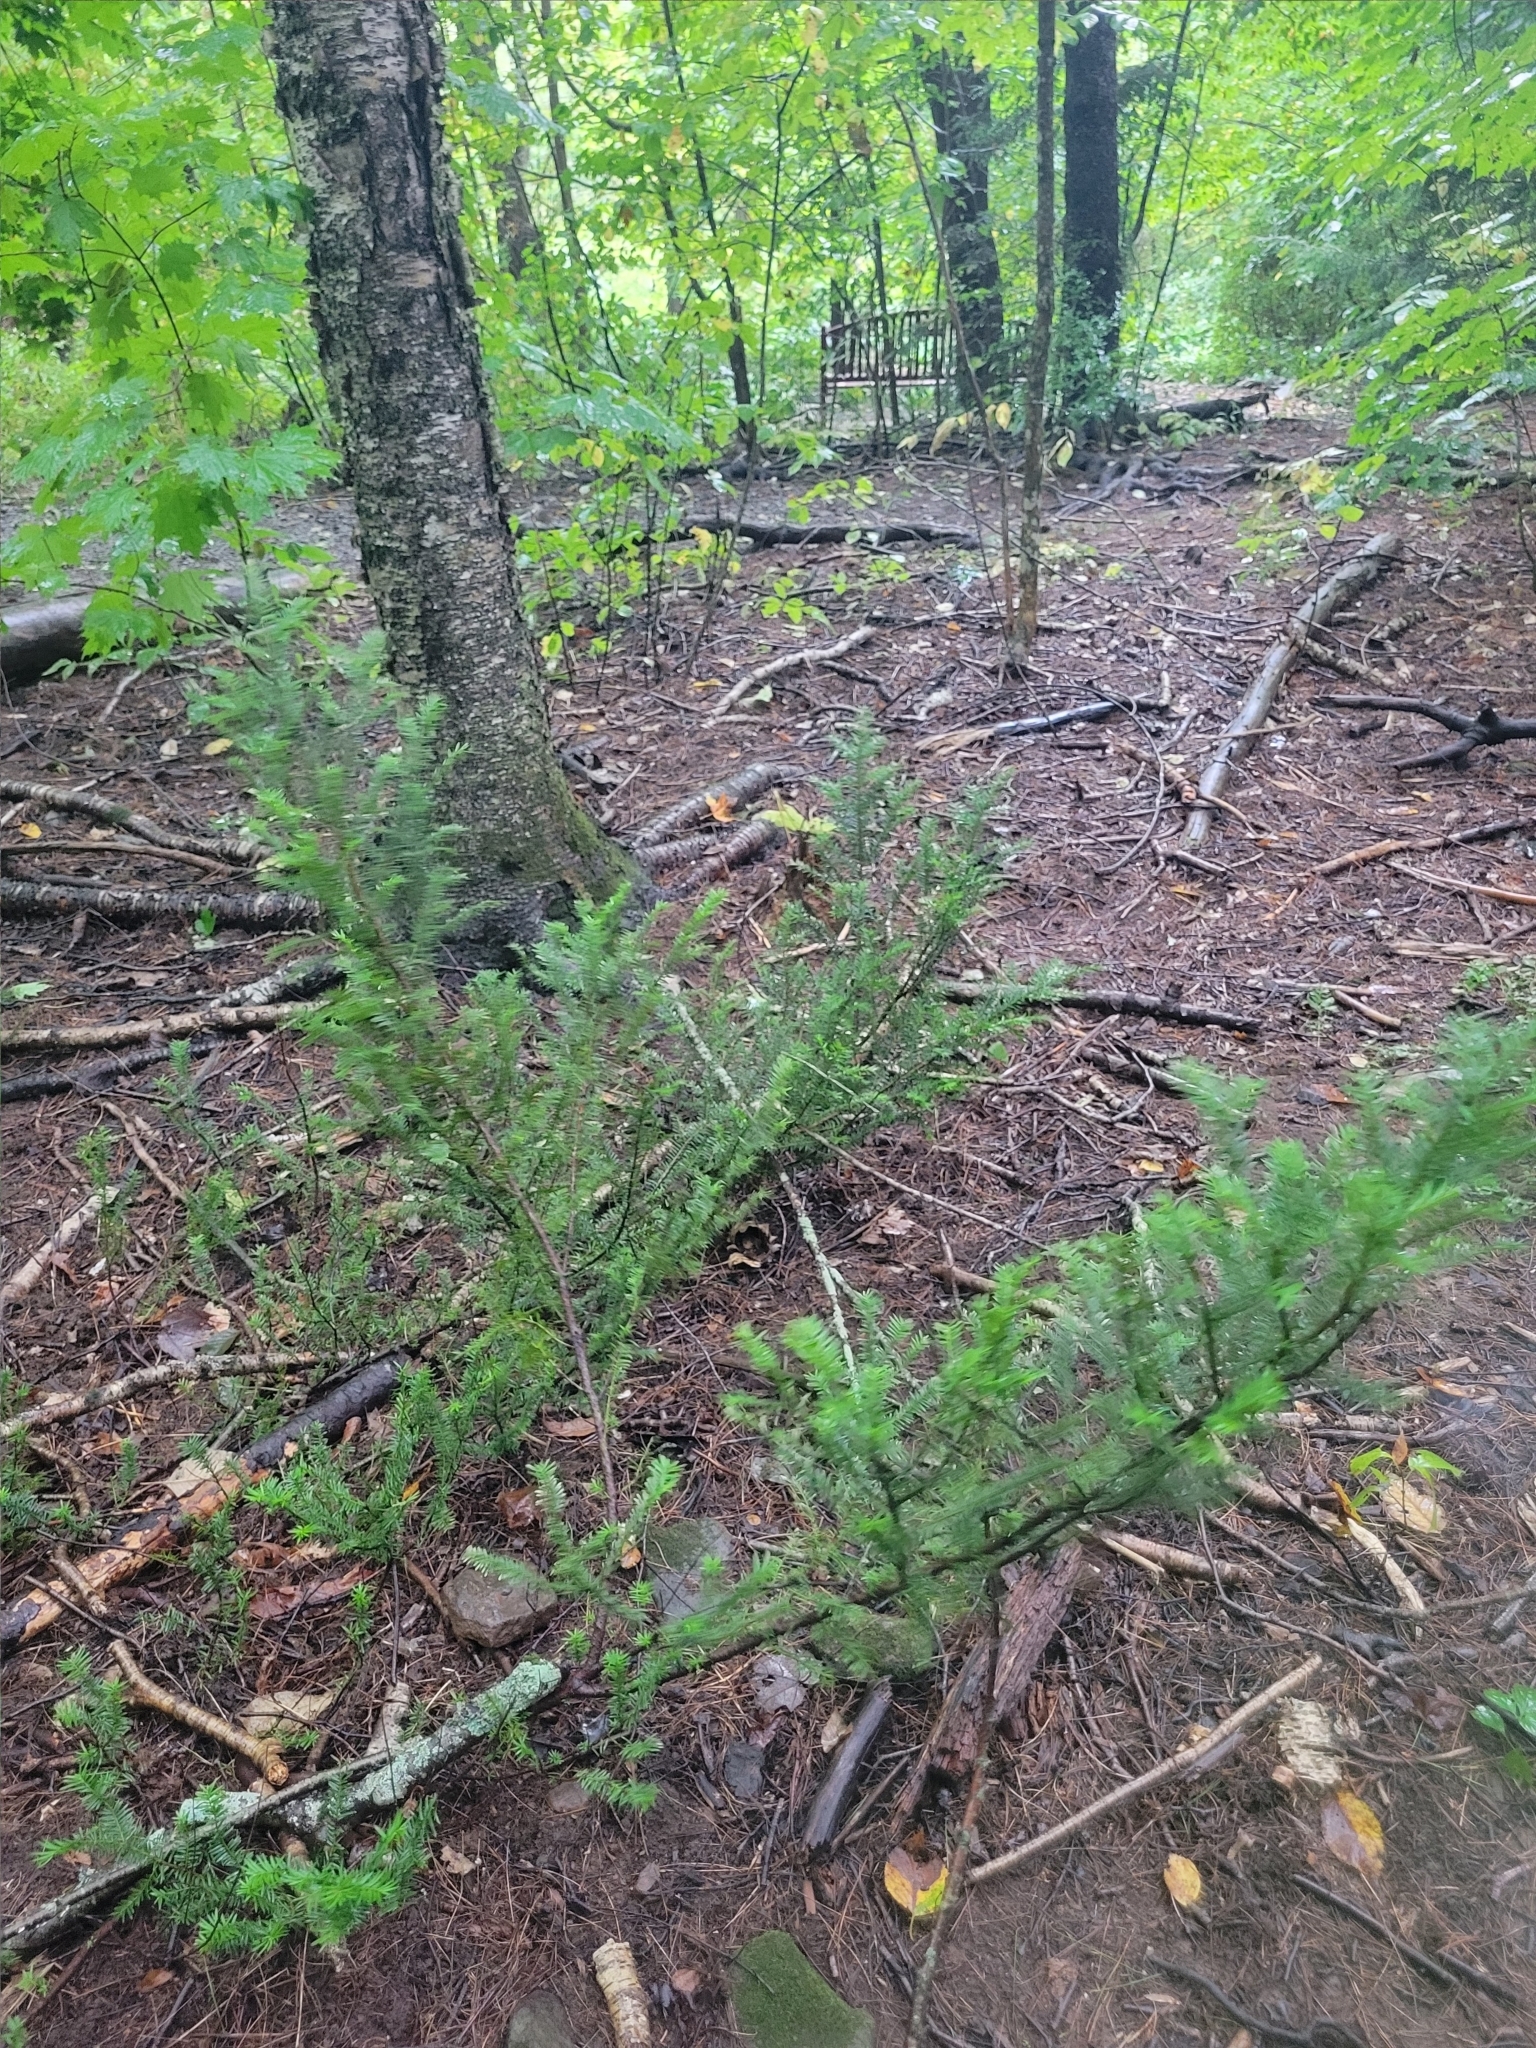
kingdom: Plantae
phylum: Tracheophyta
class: Pinopsida
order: Pinales
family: Taxaceae
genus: Taxus
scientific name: Taxus canadensis
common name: American yew
